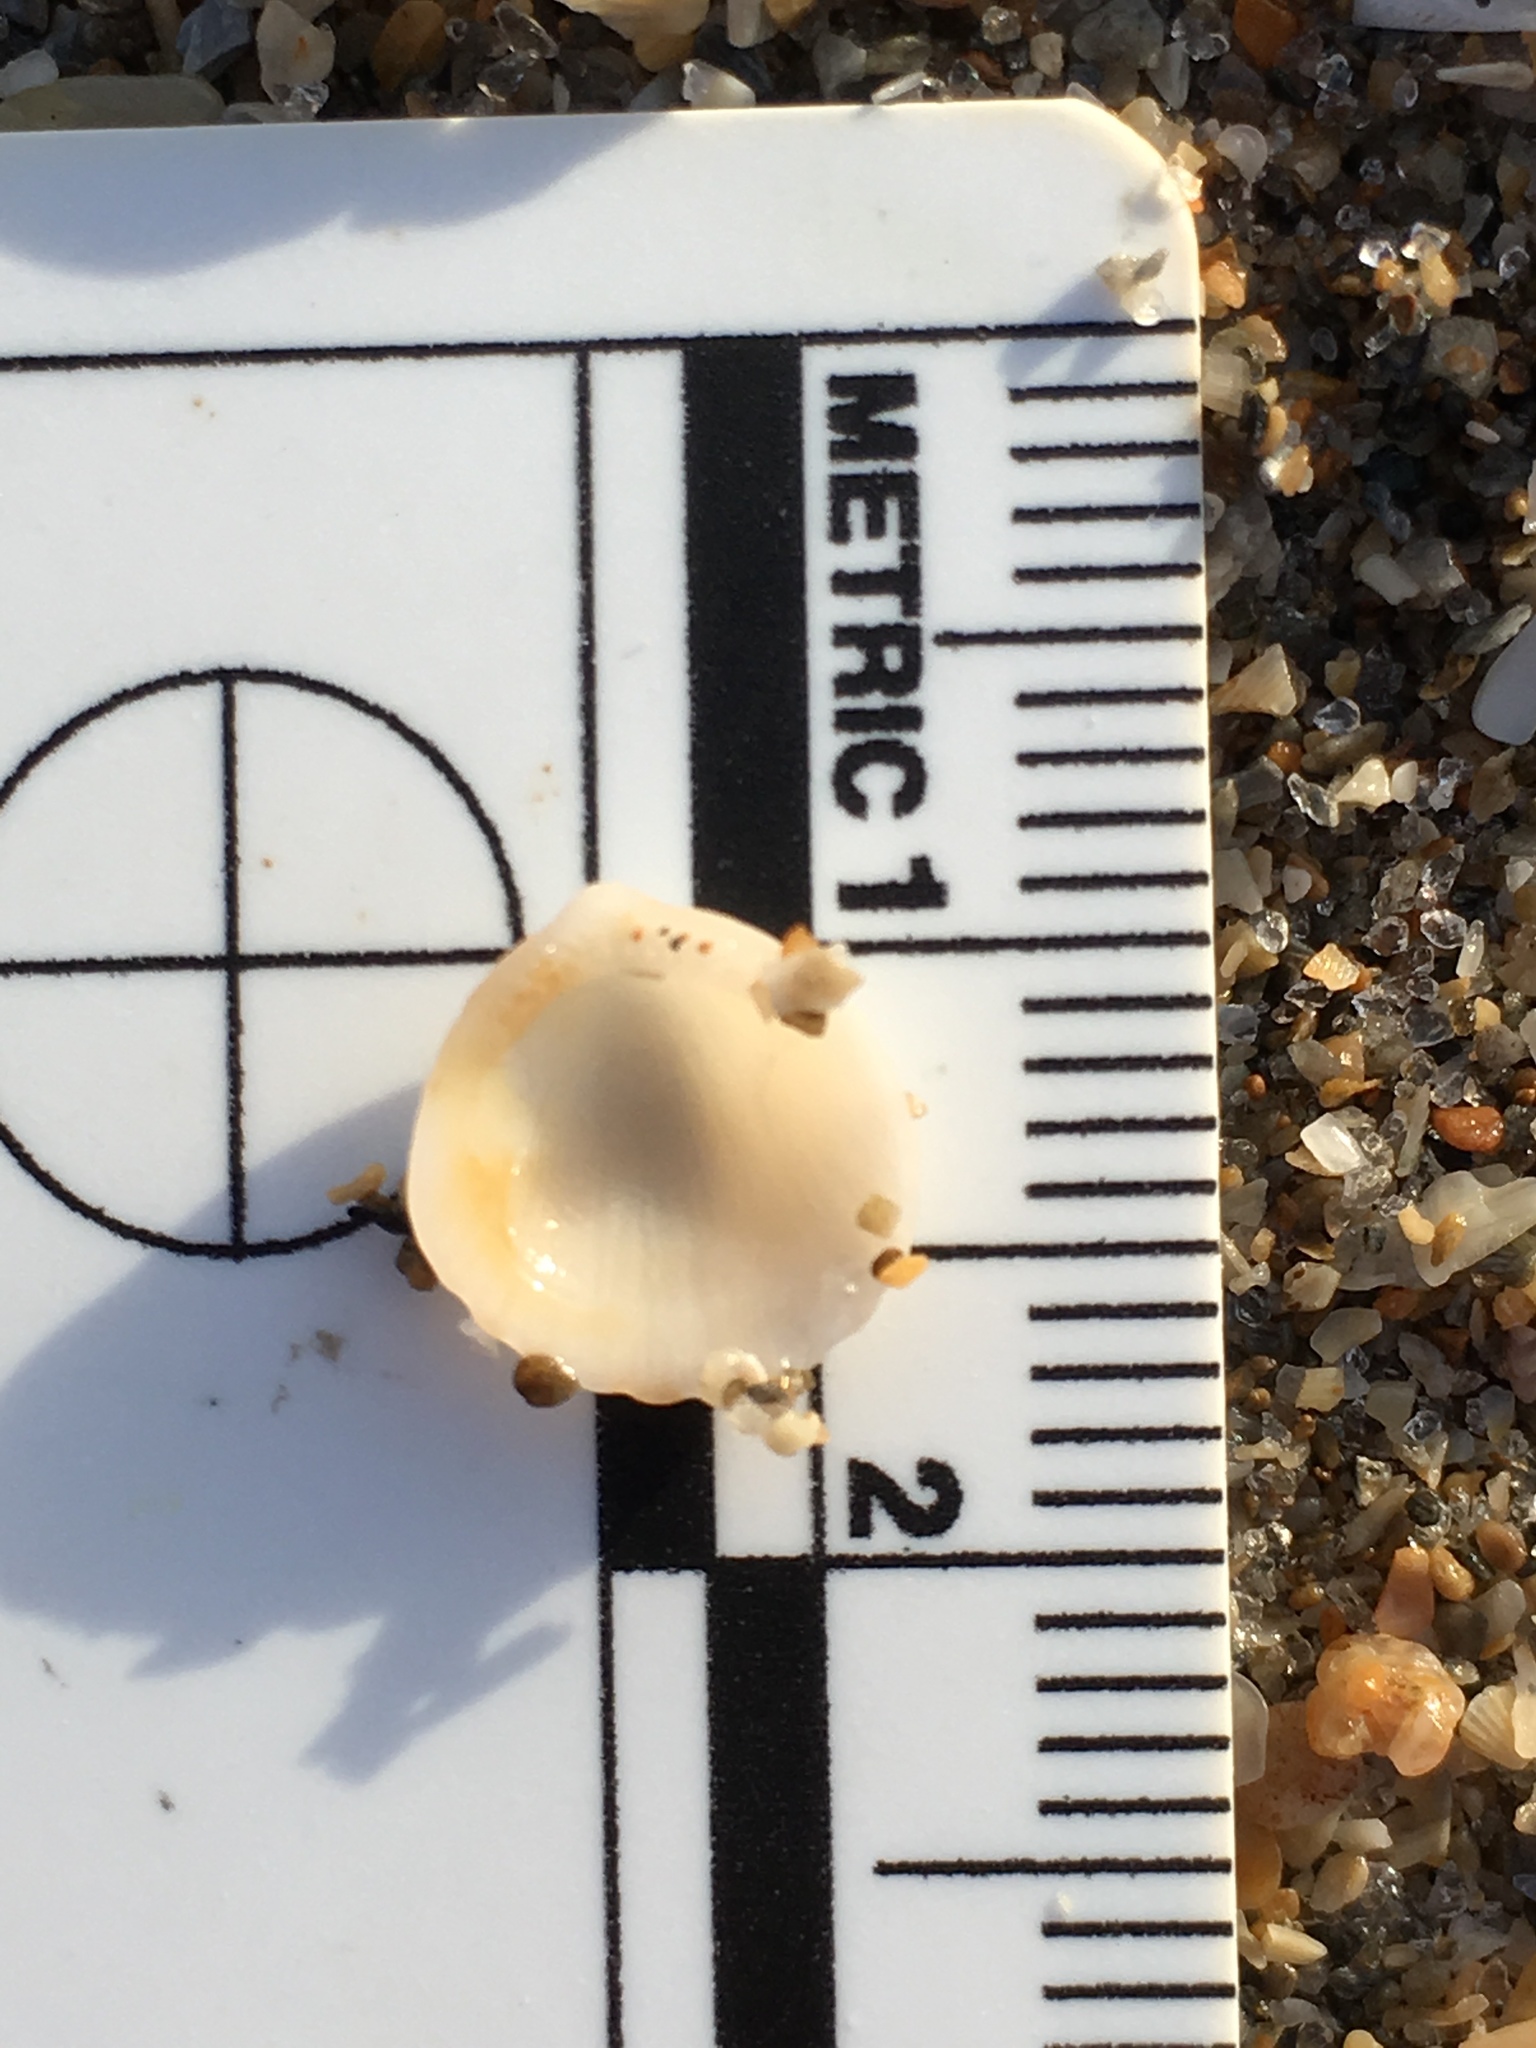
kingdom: Animalia
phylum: Mollusca
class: Bivalvia
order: Arcida
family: Glycymerididae
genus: Tucetona
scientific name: Tucetona pectinata
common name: Comb bittersweet
